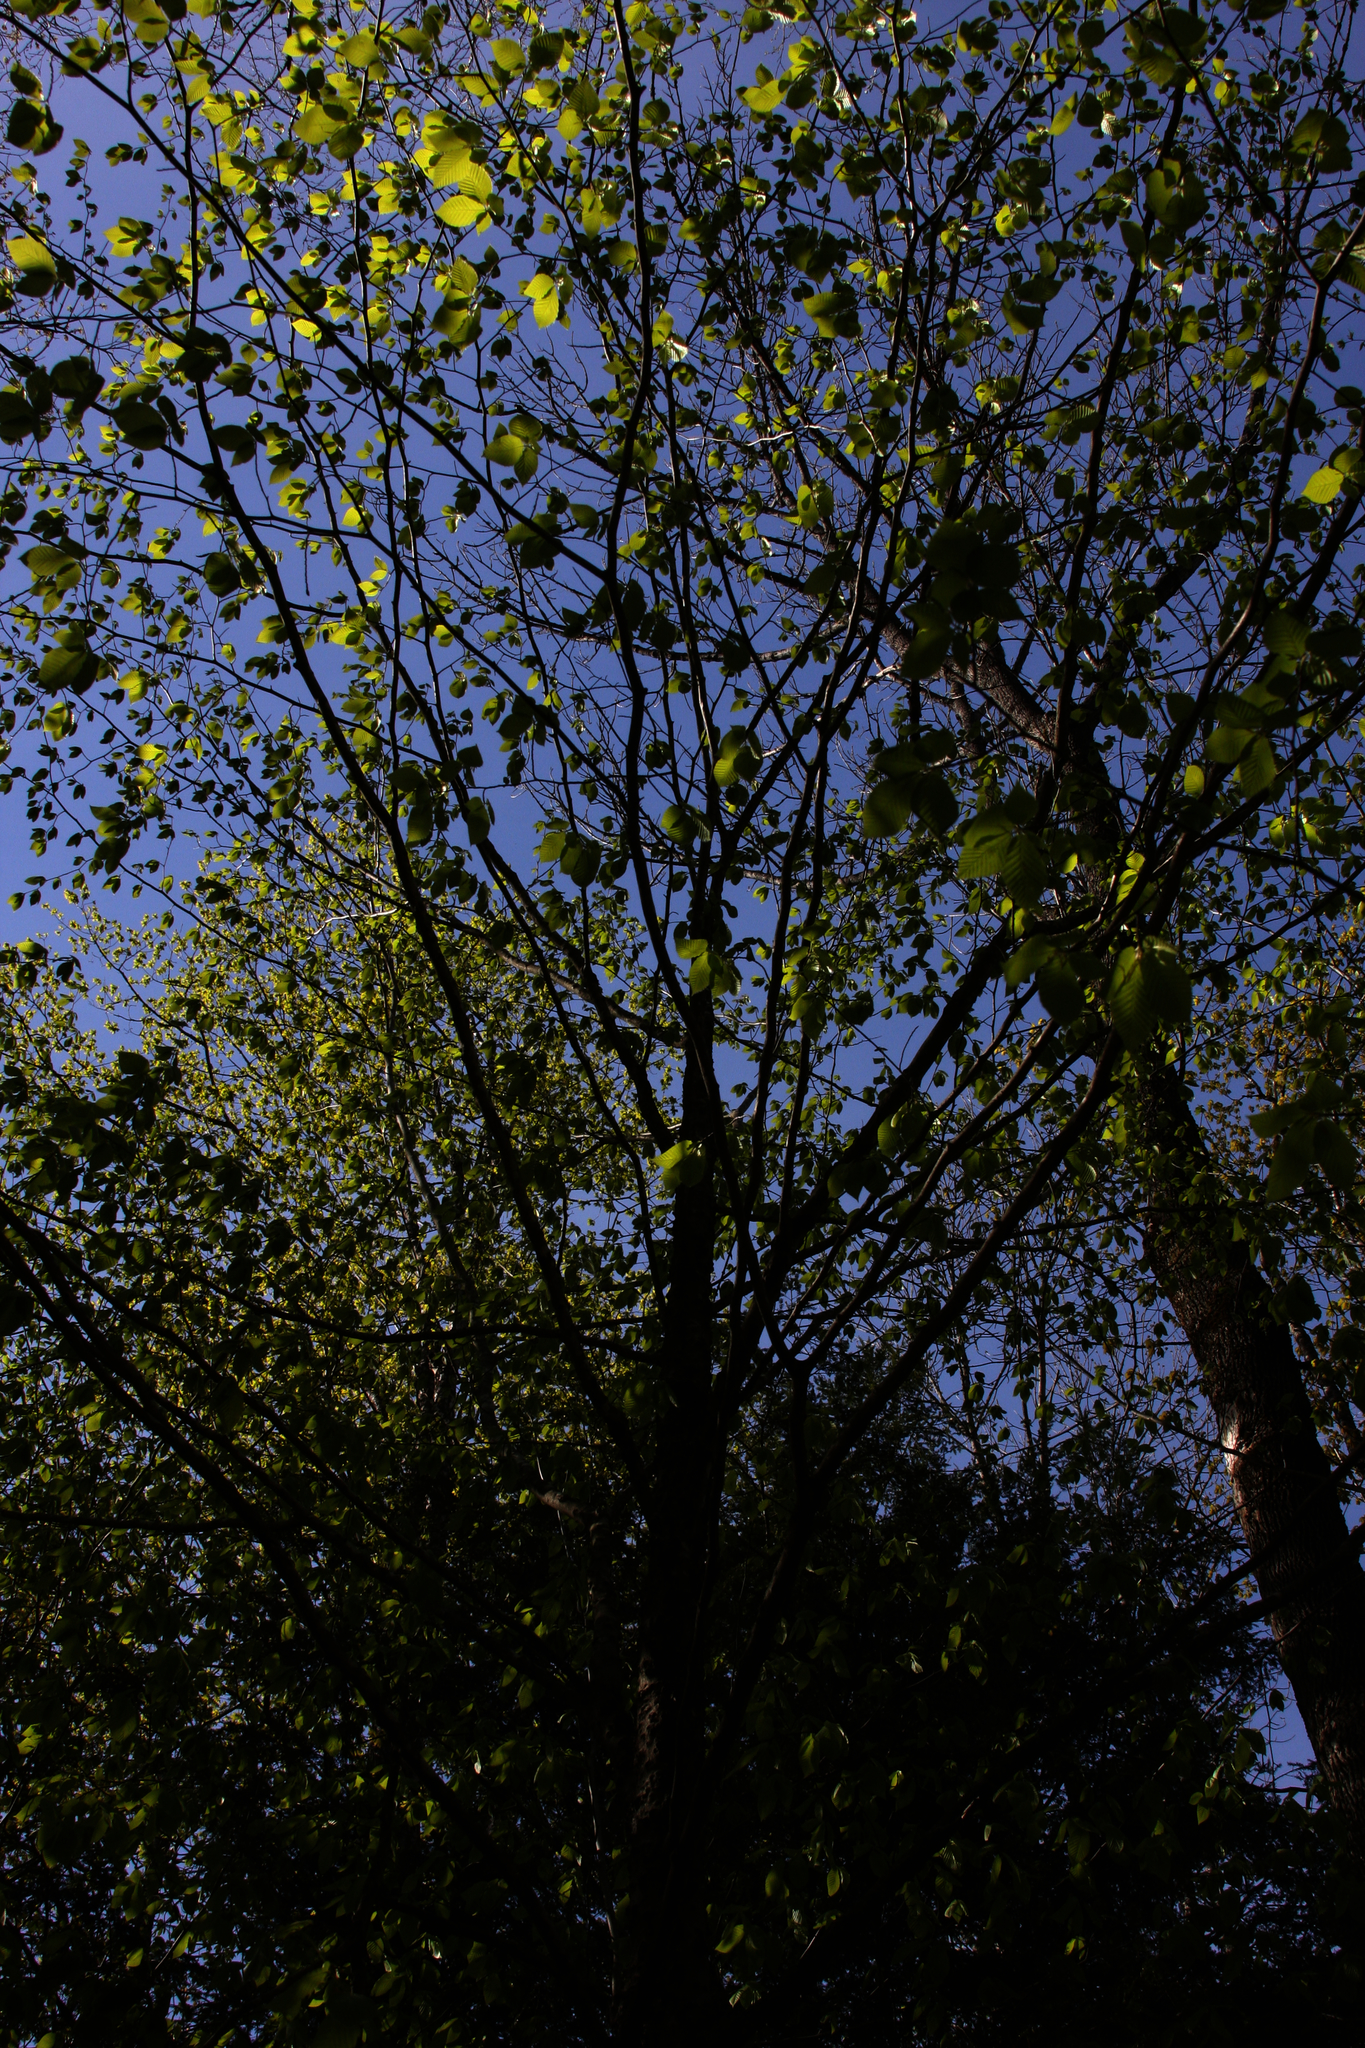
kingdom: Plantae
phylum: Tracheophyta
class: Magnoliopsida
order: Fagales
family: Fagaceae
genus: Fagus
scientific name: Fagus grandifolia
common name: American beech
